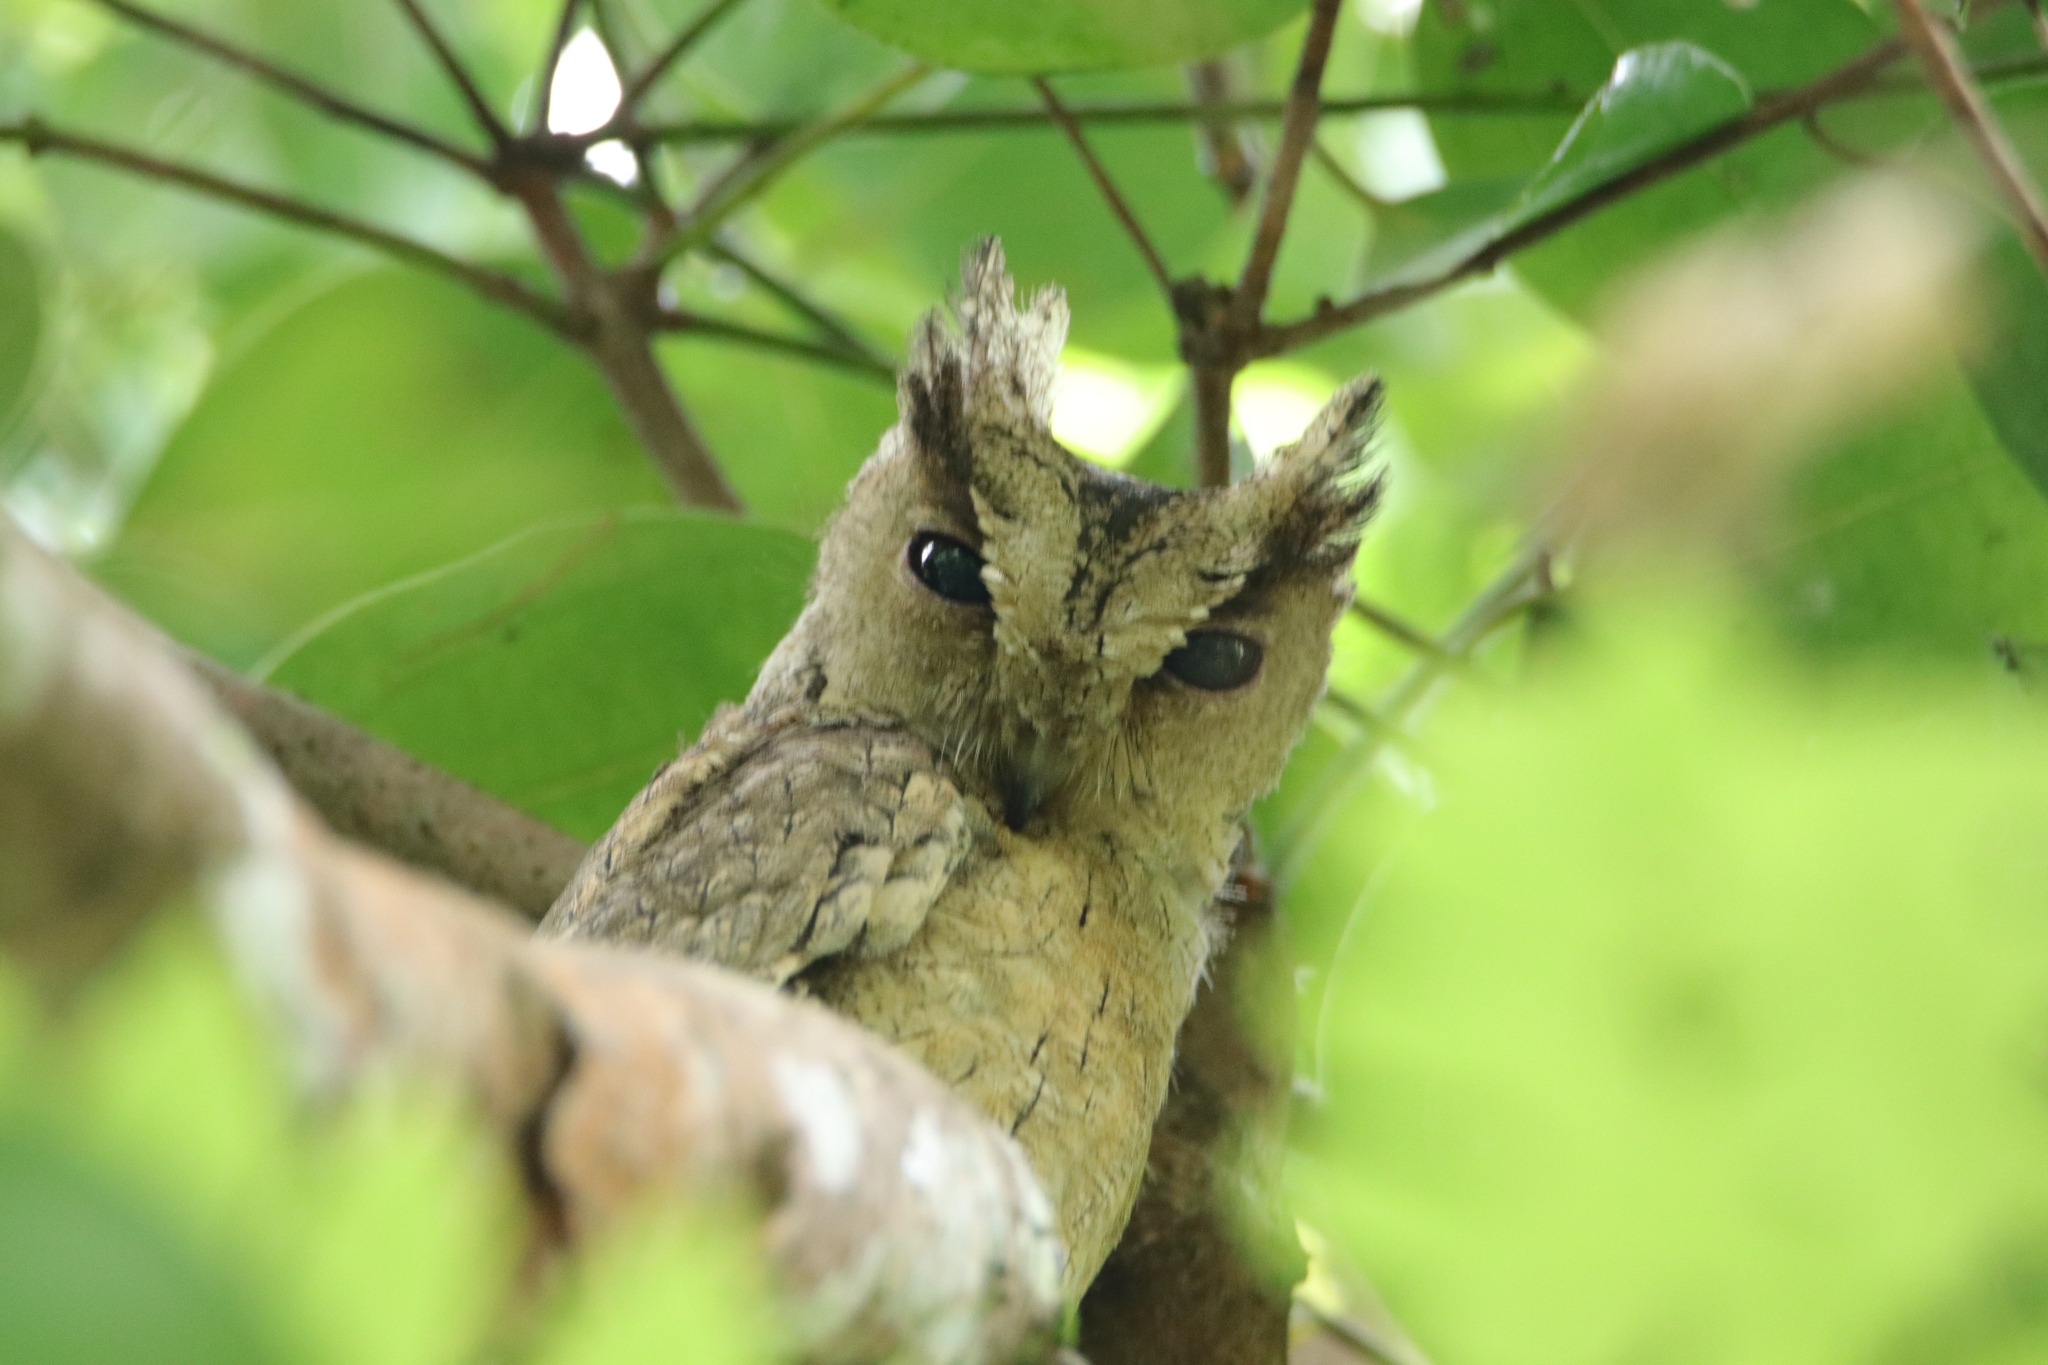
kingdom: Animalia
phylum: Chordata
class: Aves
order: Strigiformes
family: Strigidae
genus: Otus
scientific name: Otus bakkamoena
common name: Indian scops owl
